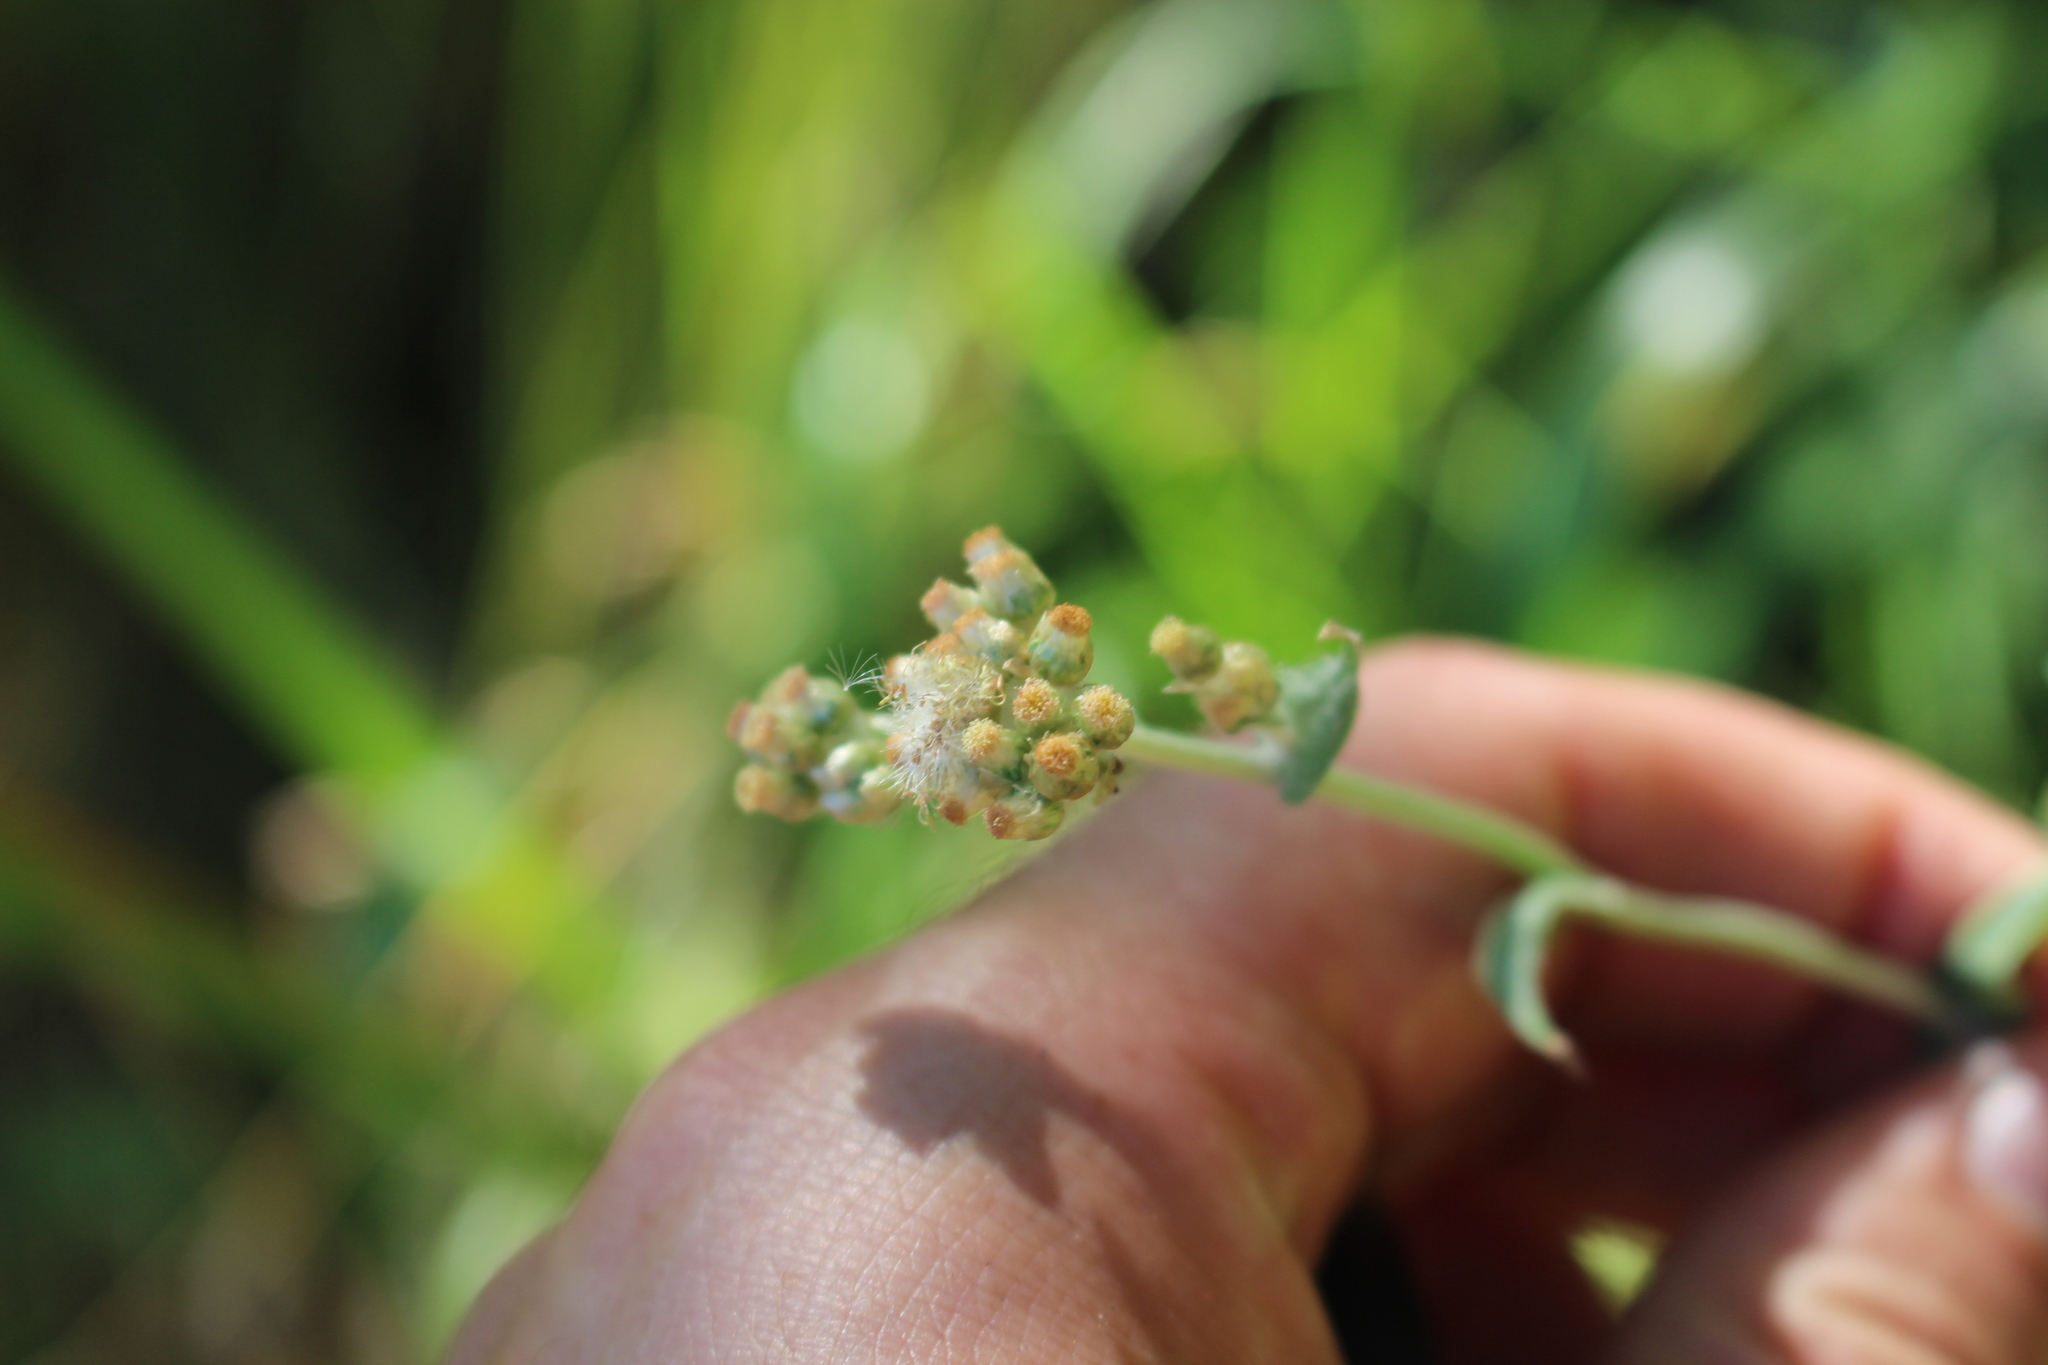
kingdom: Plantae
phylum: Tracheophyta
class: Magnoliopsida
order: Asterales
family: Asteraceae
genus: Helichrysum
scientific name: Helichrysum luteoalbum
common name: Daisy
